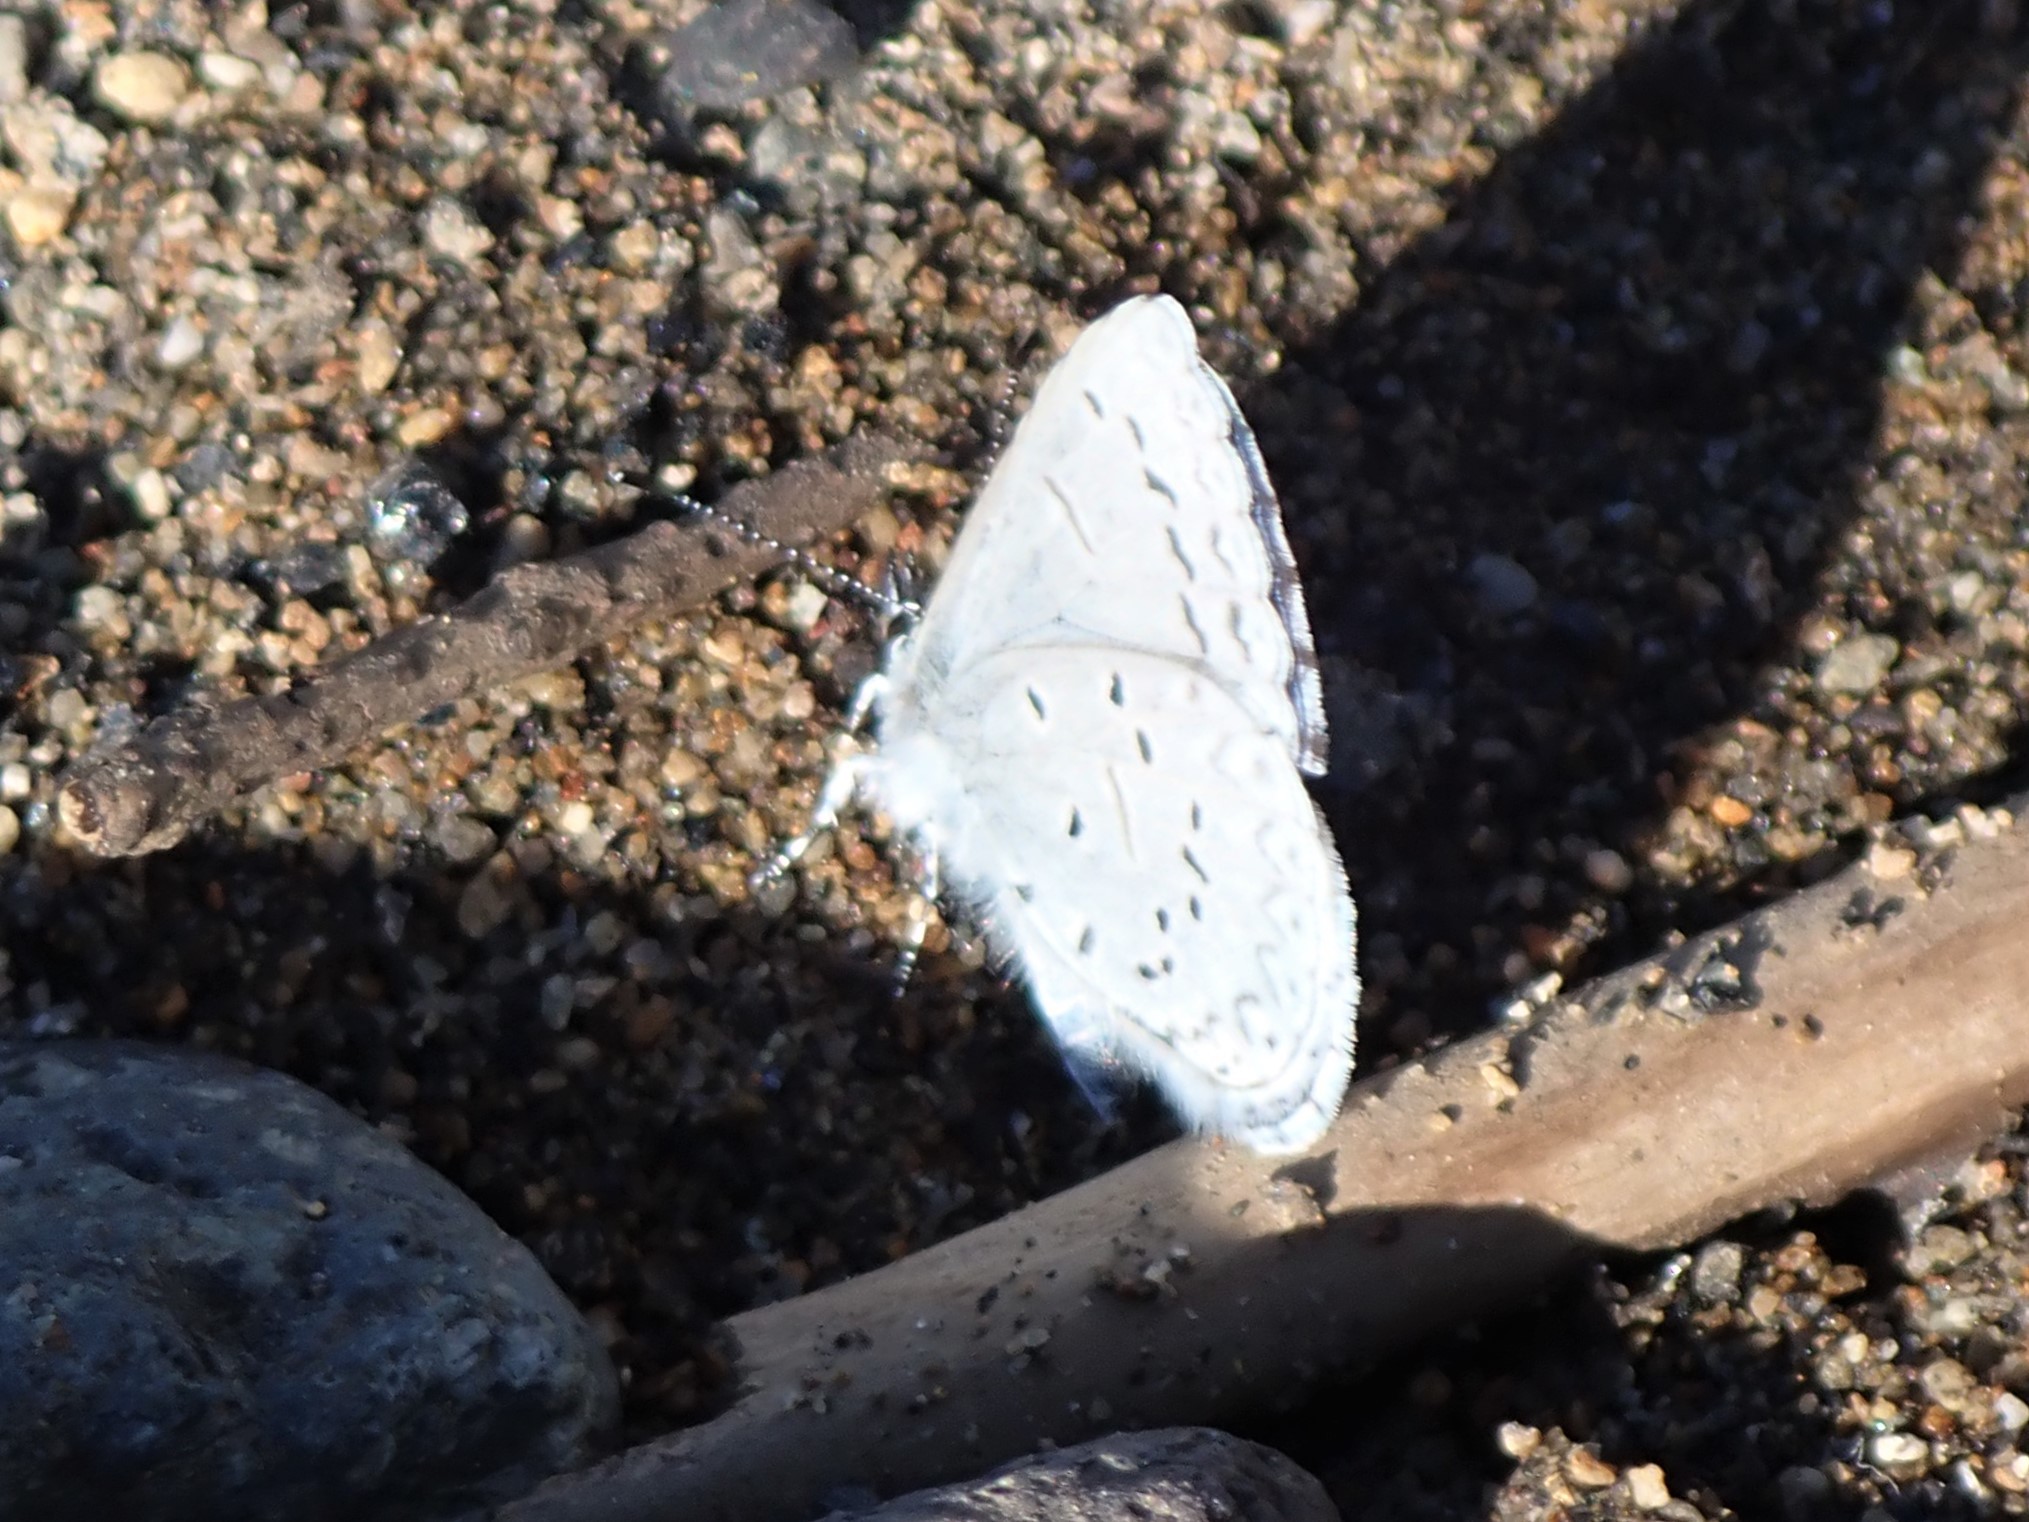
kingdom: Animalia
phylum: Arthropoda
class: Insecta
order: Lepidoptera
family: Lycaenidae
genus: Celastrina
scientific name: Celastrina ladon
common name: Spring azure
